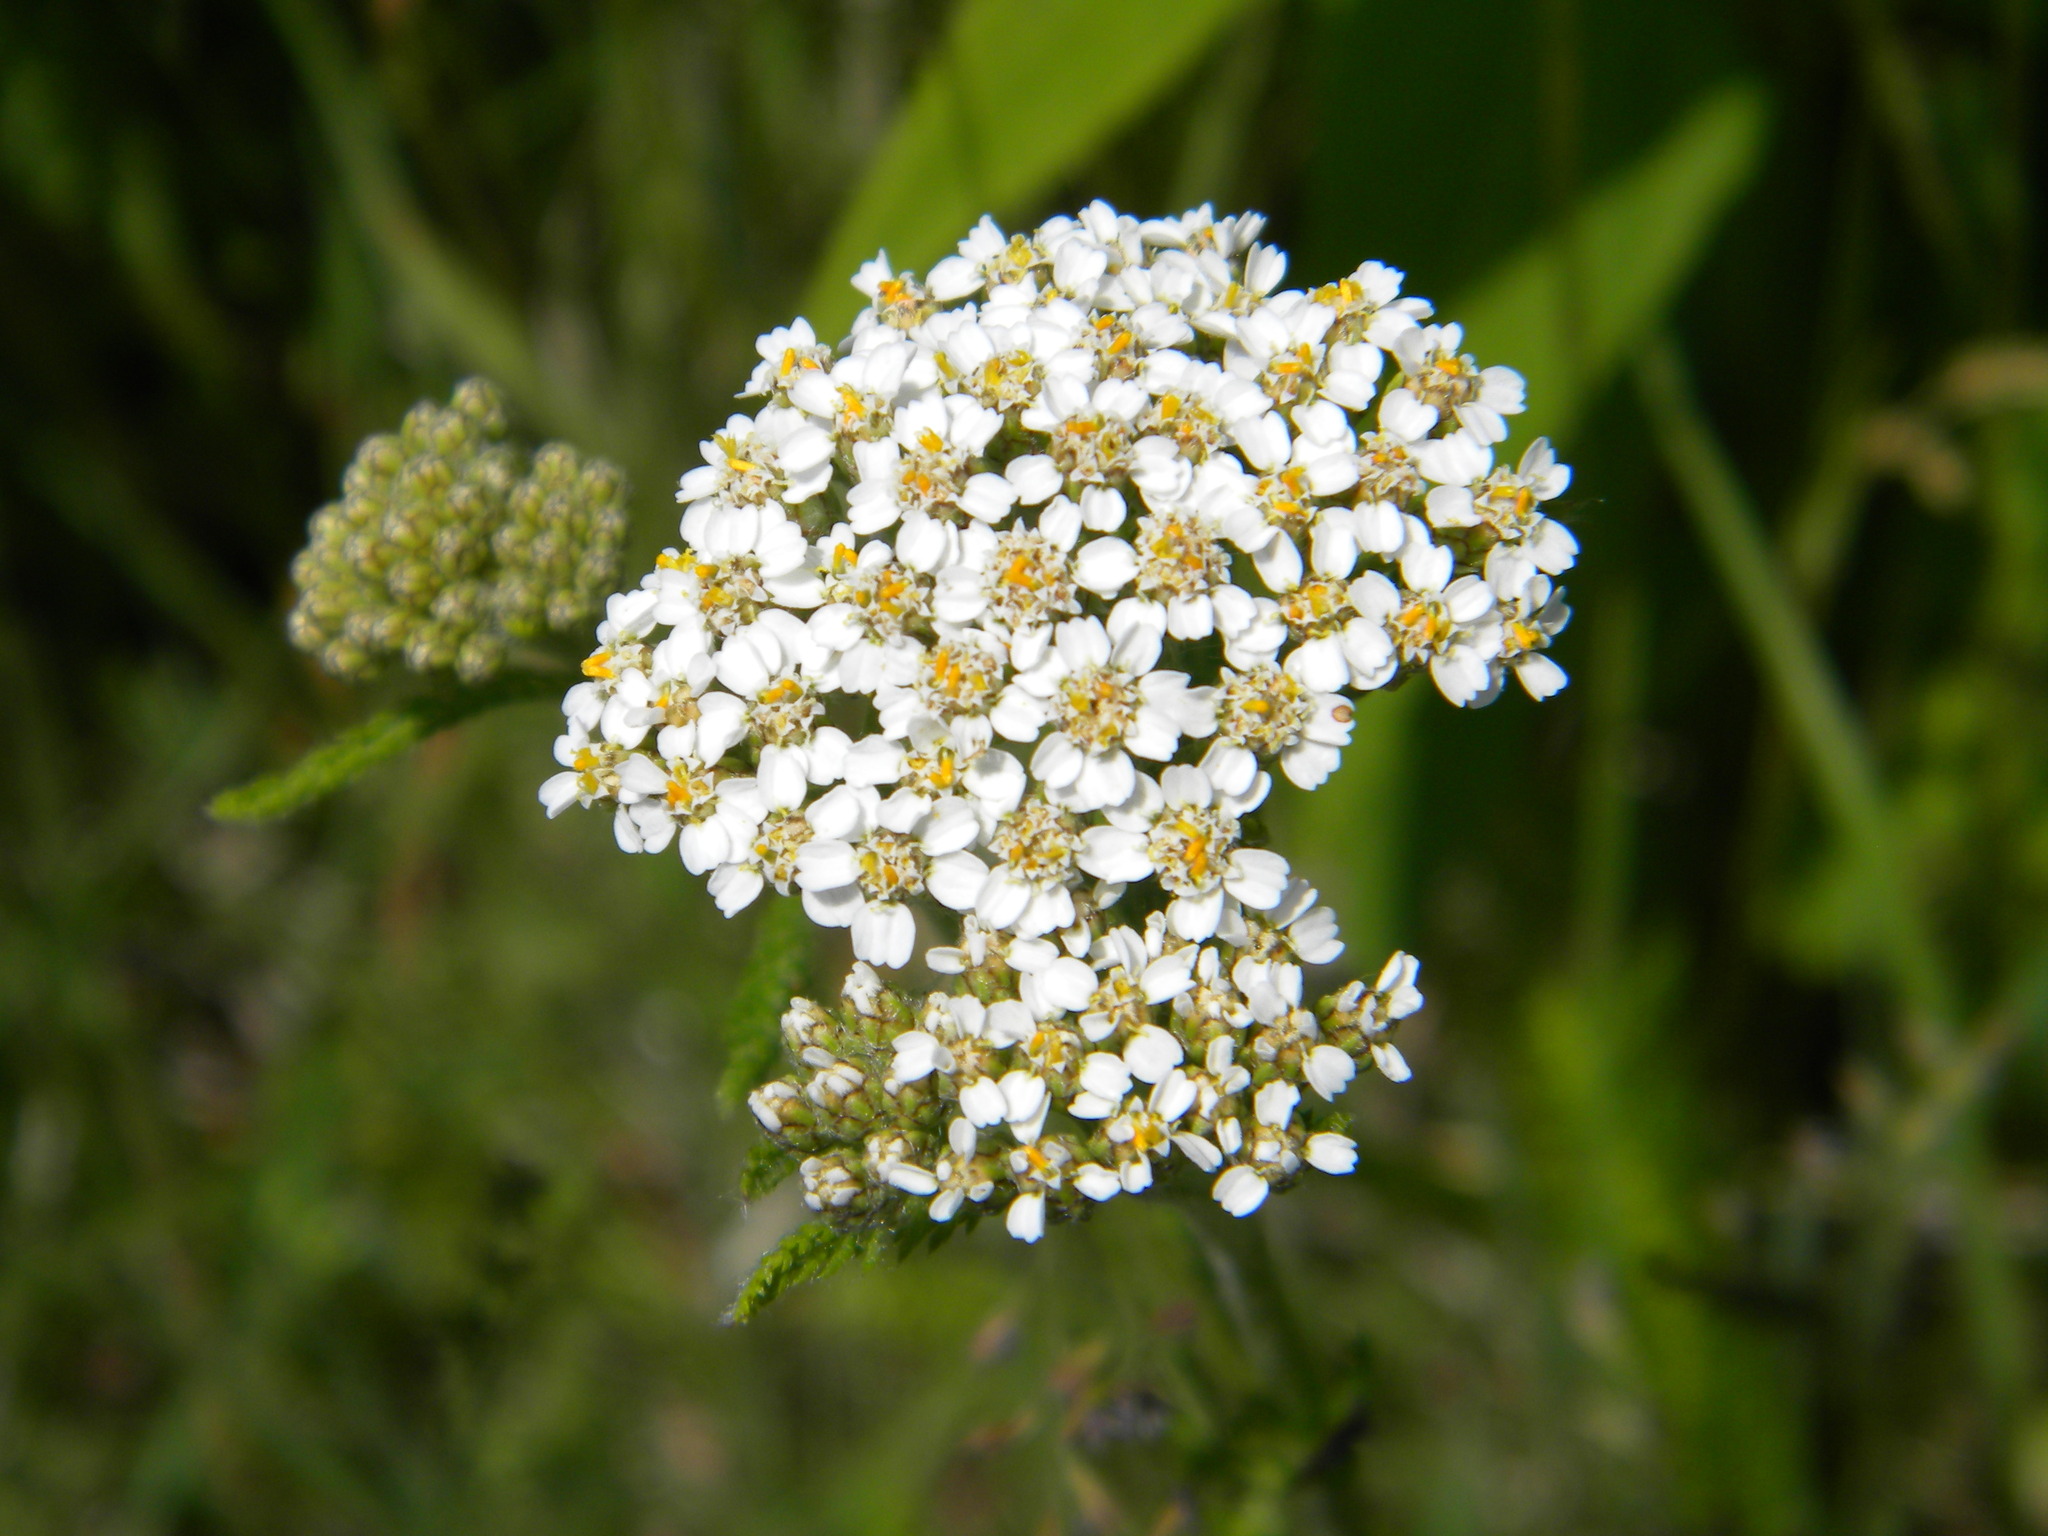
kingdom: Plantae
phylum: Tracheophyta
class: Magnoliopsida
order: Asterales
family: Asteraceae
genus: Achillea
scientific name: Achillea millefolium
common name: Yarrow
